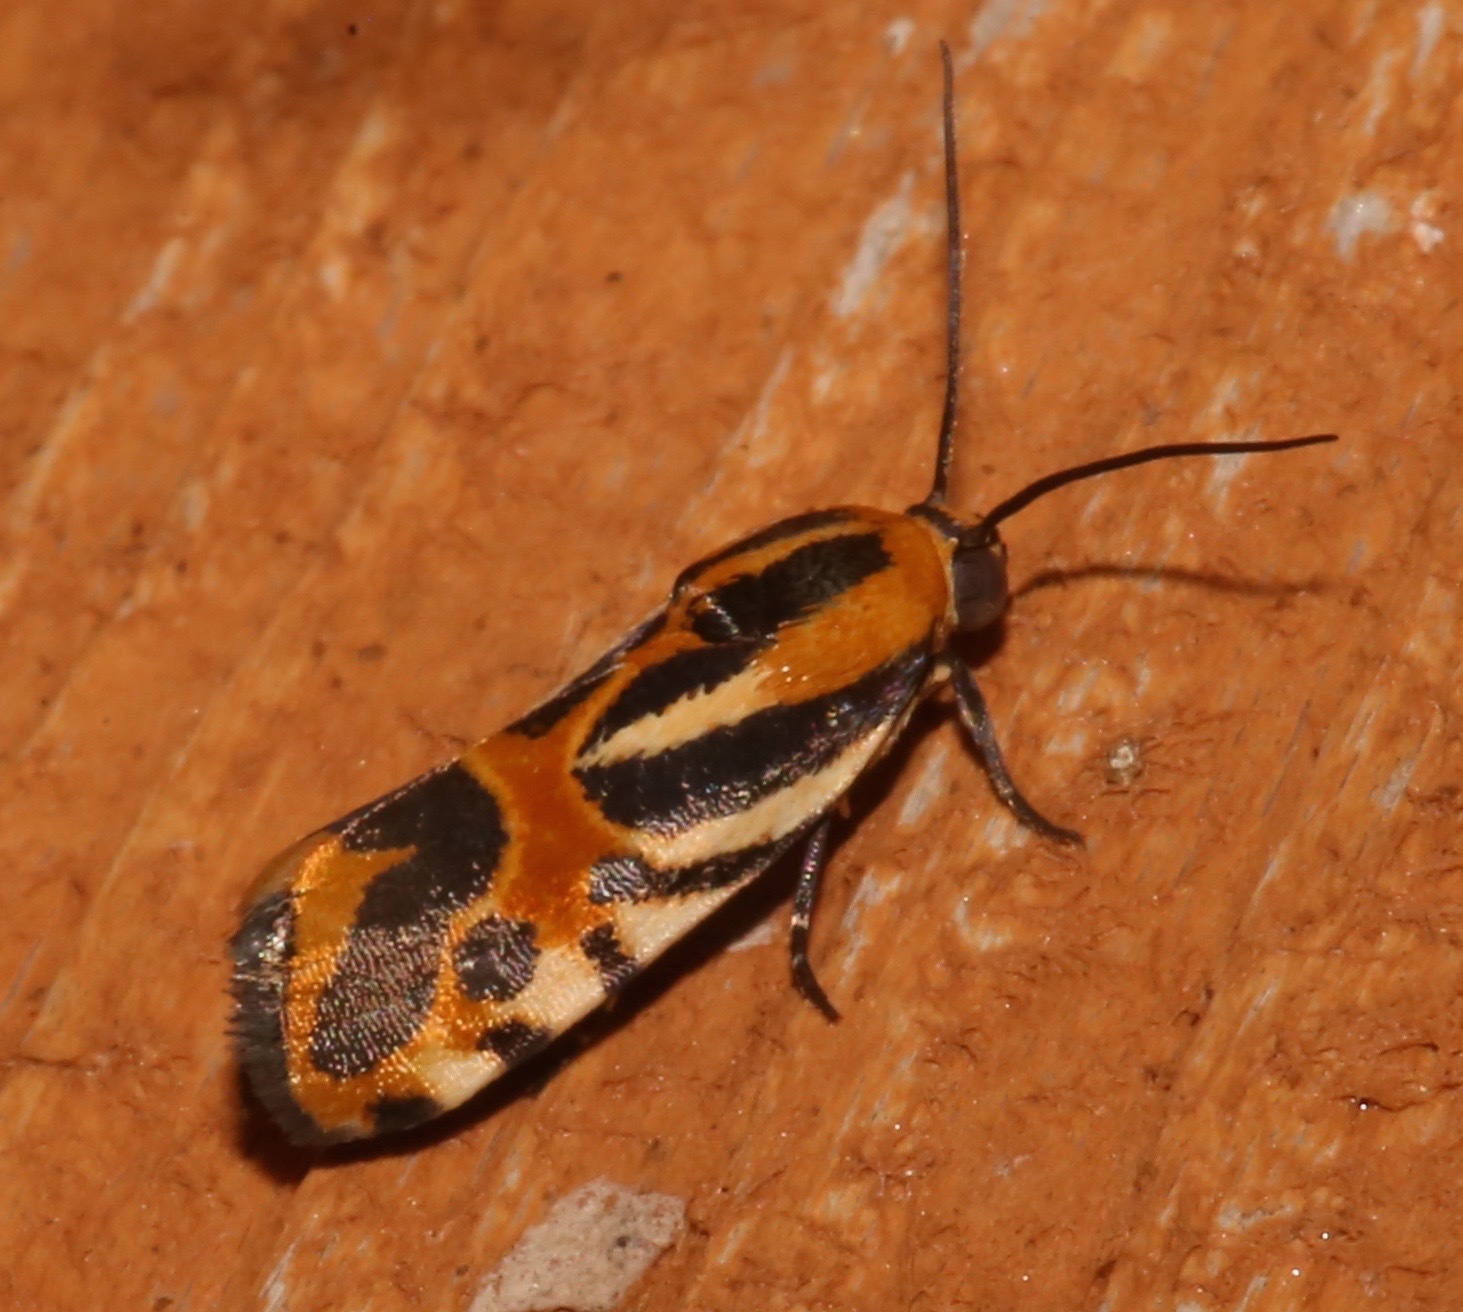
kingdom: Animalia
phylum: Arthropoda
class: Insecta
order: Lepidoptera
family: Noctuidae
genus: Acontia
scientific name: Acontia onagrus
